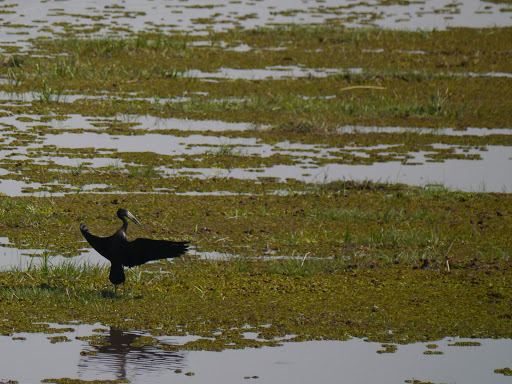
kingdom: Animalia
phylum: Chordata
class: Aves
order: Ciconiiformes
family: Ciconiidae
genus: Anastomus
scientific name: Anastomus lamelligerus
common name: African openbill
